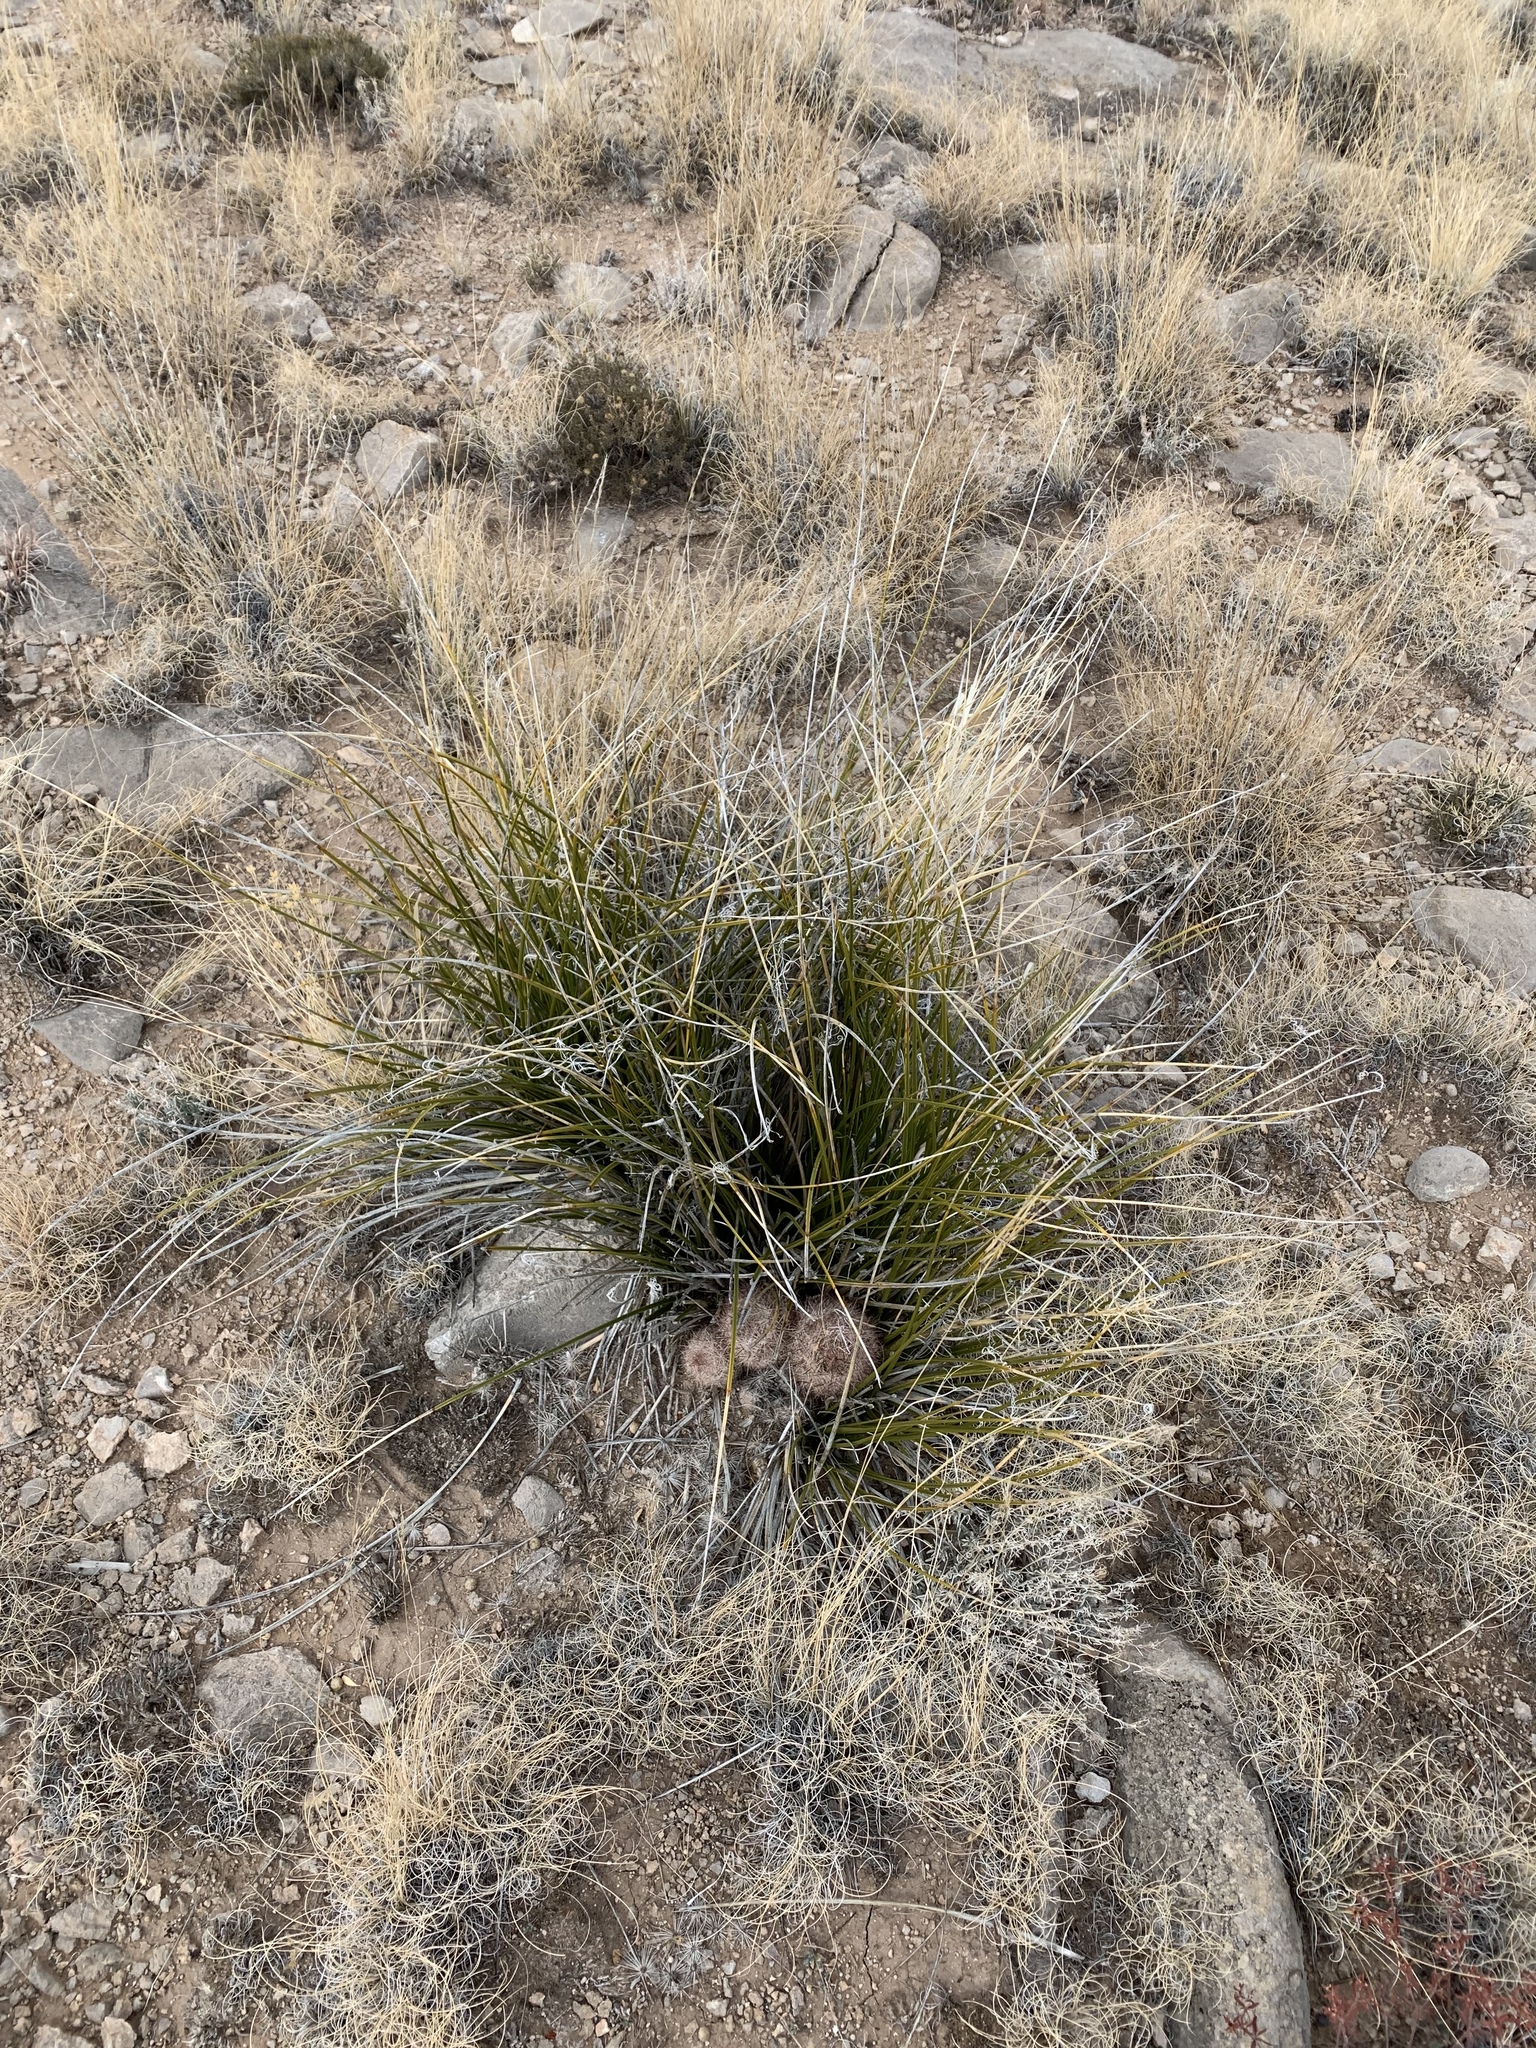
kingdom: Plantae
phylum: Tracheophyta
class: Magnoliopsida
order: Caryophyllales
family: Cactaceae
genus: Pelecyphora
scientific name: Pelecyphora vivipara
